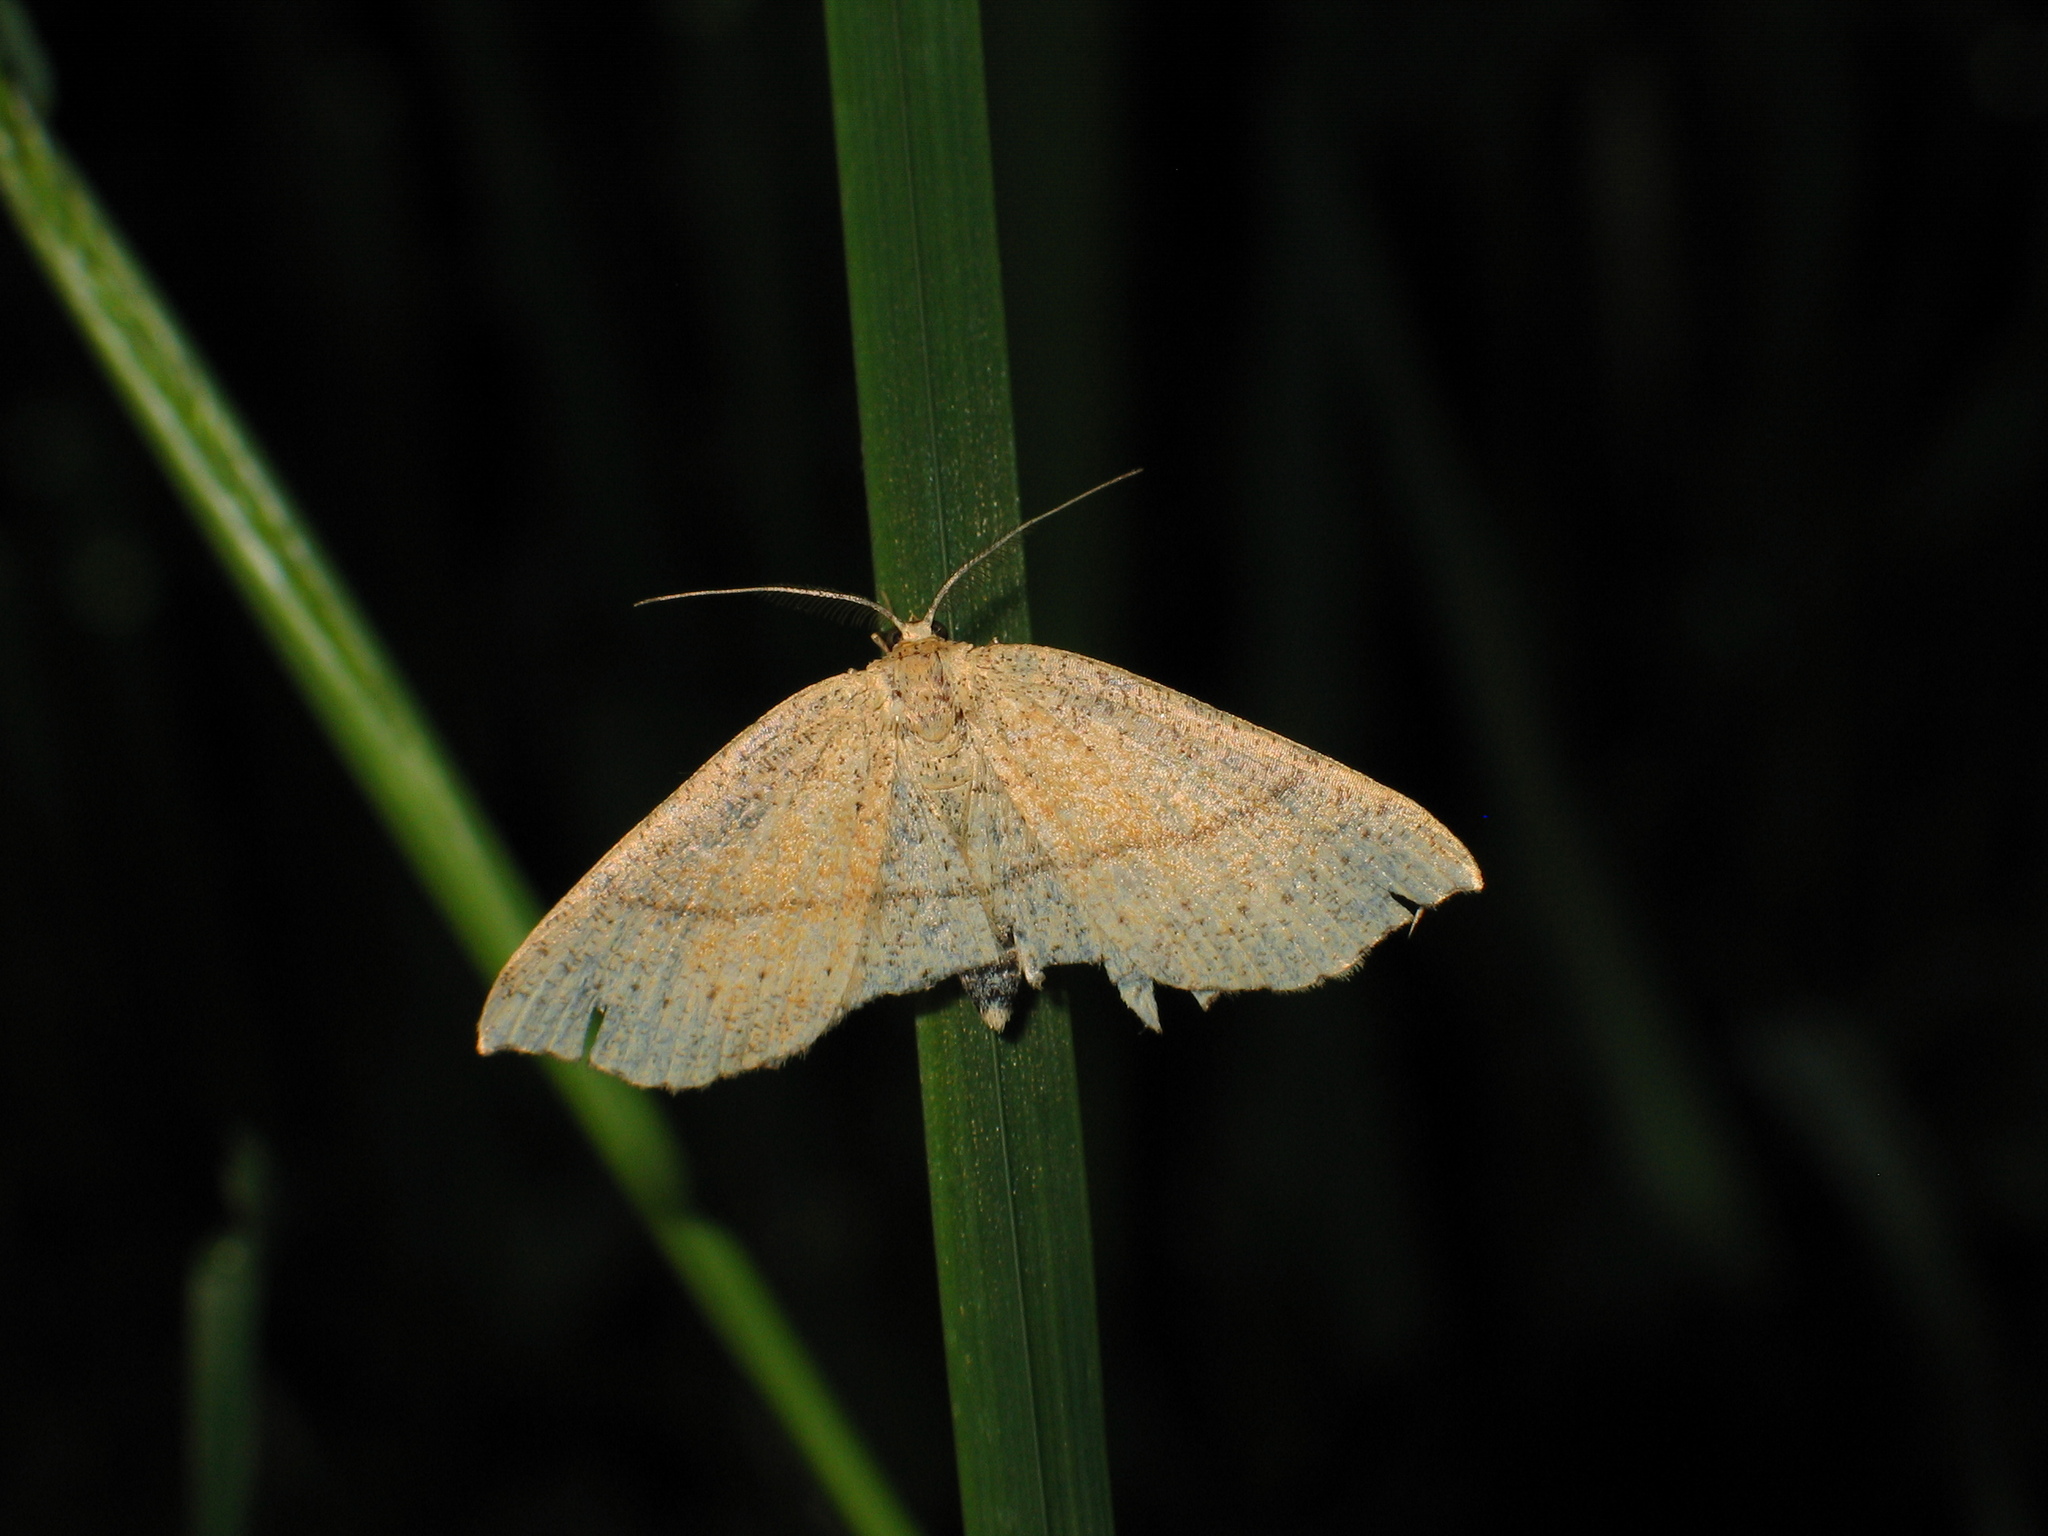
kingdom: Animalia
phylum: Arthropoda
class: Insecta
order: Lepidoptera
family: Geometridae
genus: Cyclophora
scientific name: Cyclophora punctaria
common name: Maiden's blush
